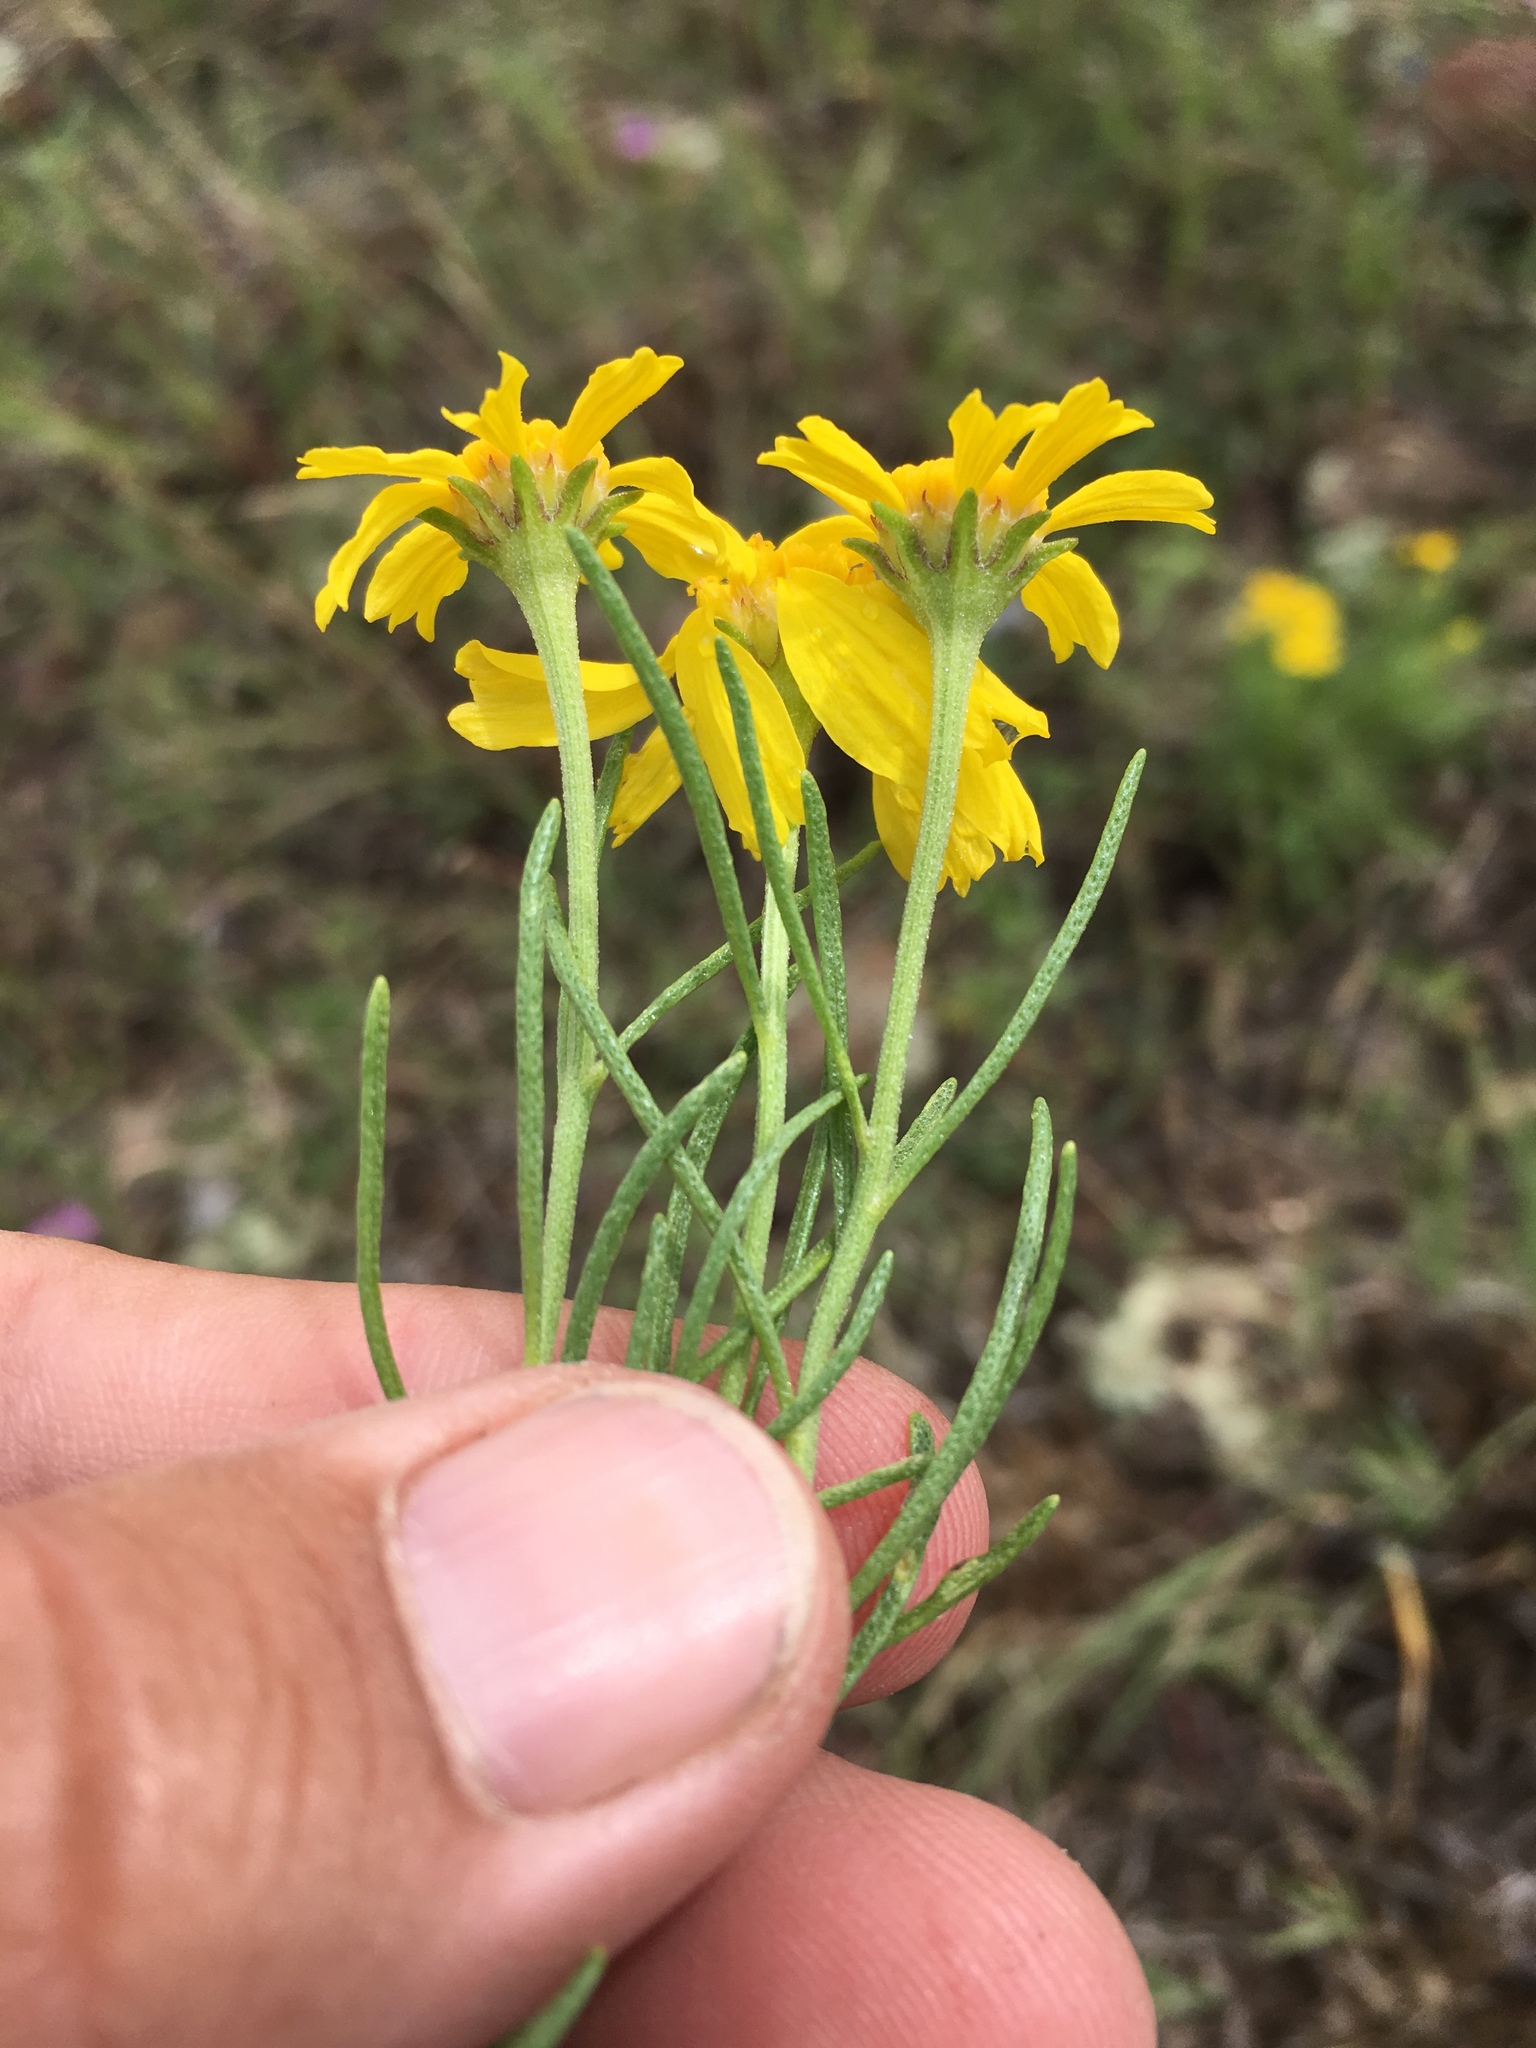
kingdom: Plantae
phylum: Tracheophyta
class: Magnoliopsida
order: Asterales
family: Asteraceae
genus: Hymenoxys
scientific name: Hymenoxys richardsonii
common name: Pingue rubberweed
